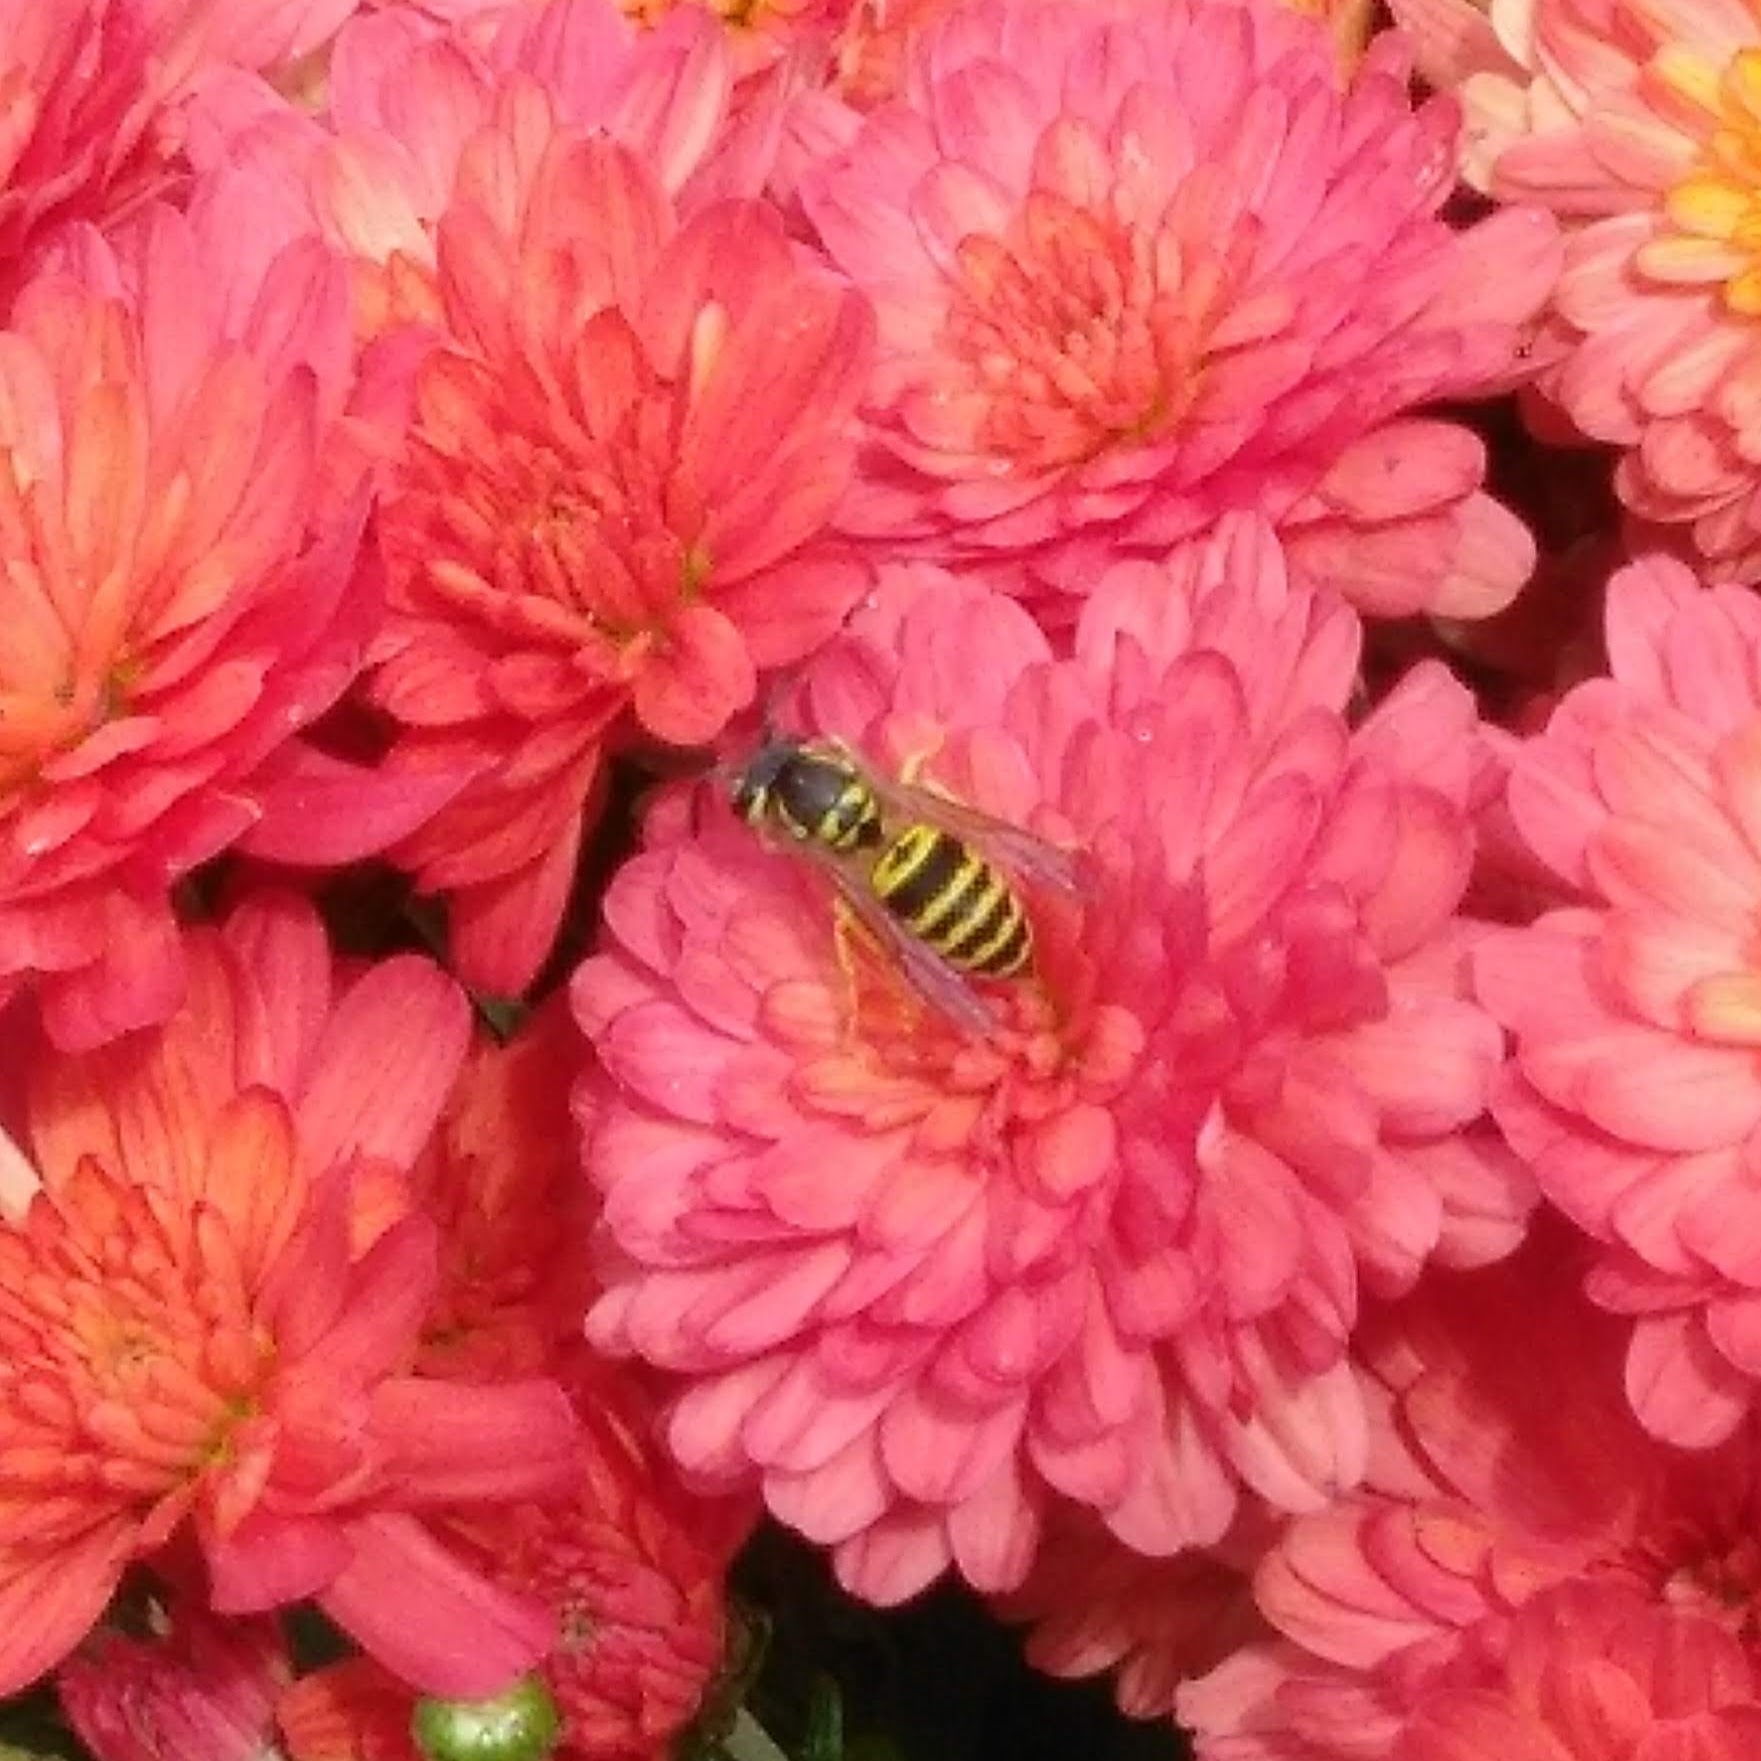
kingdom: Animalia
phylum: Arthropoda
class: Insecta
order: Hymenoptera
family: Vespidae
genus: Vespula
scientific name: Vespula maculifrons
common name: Eastern yellowjacket
